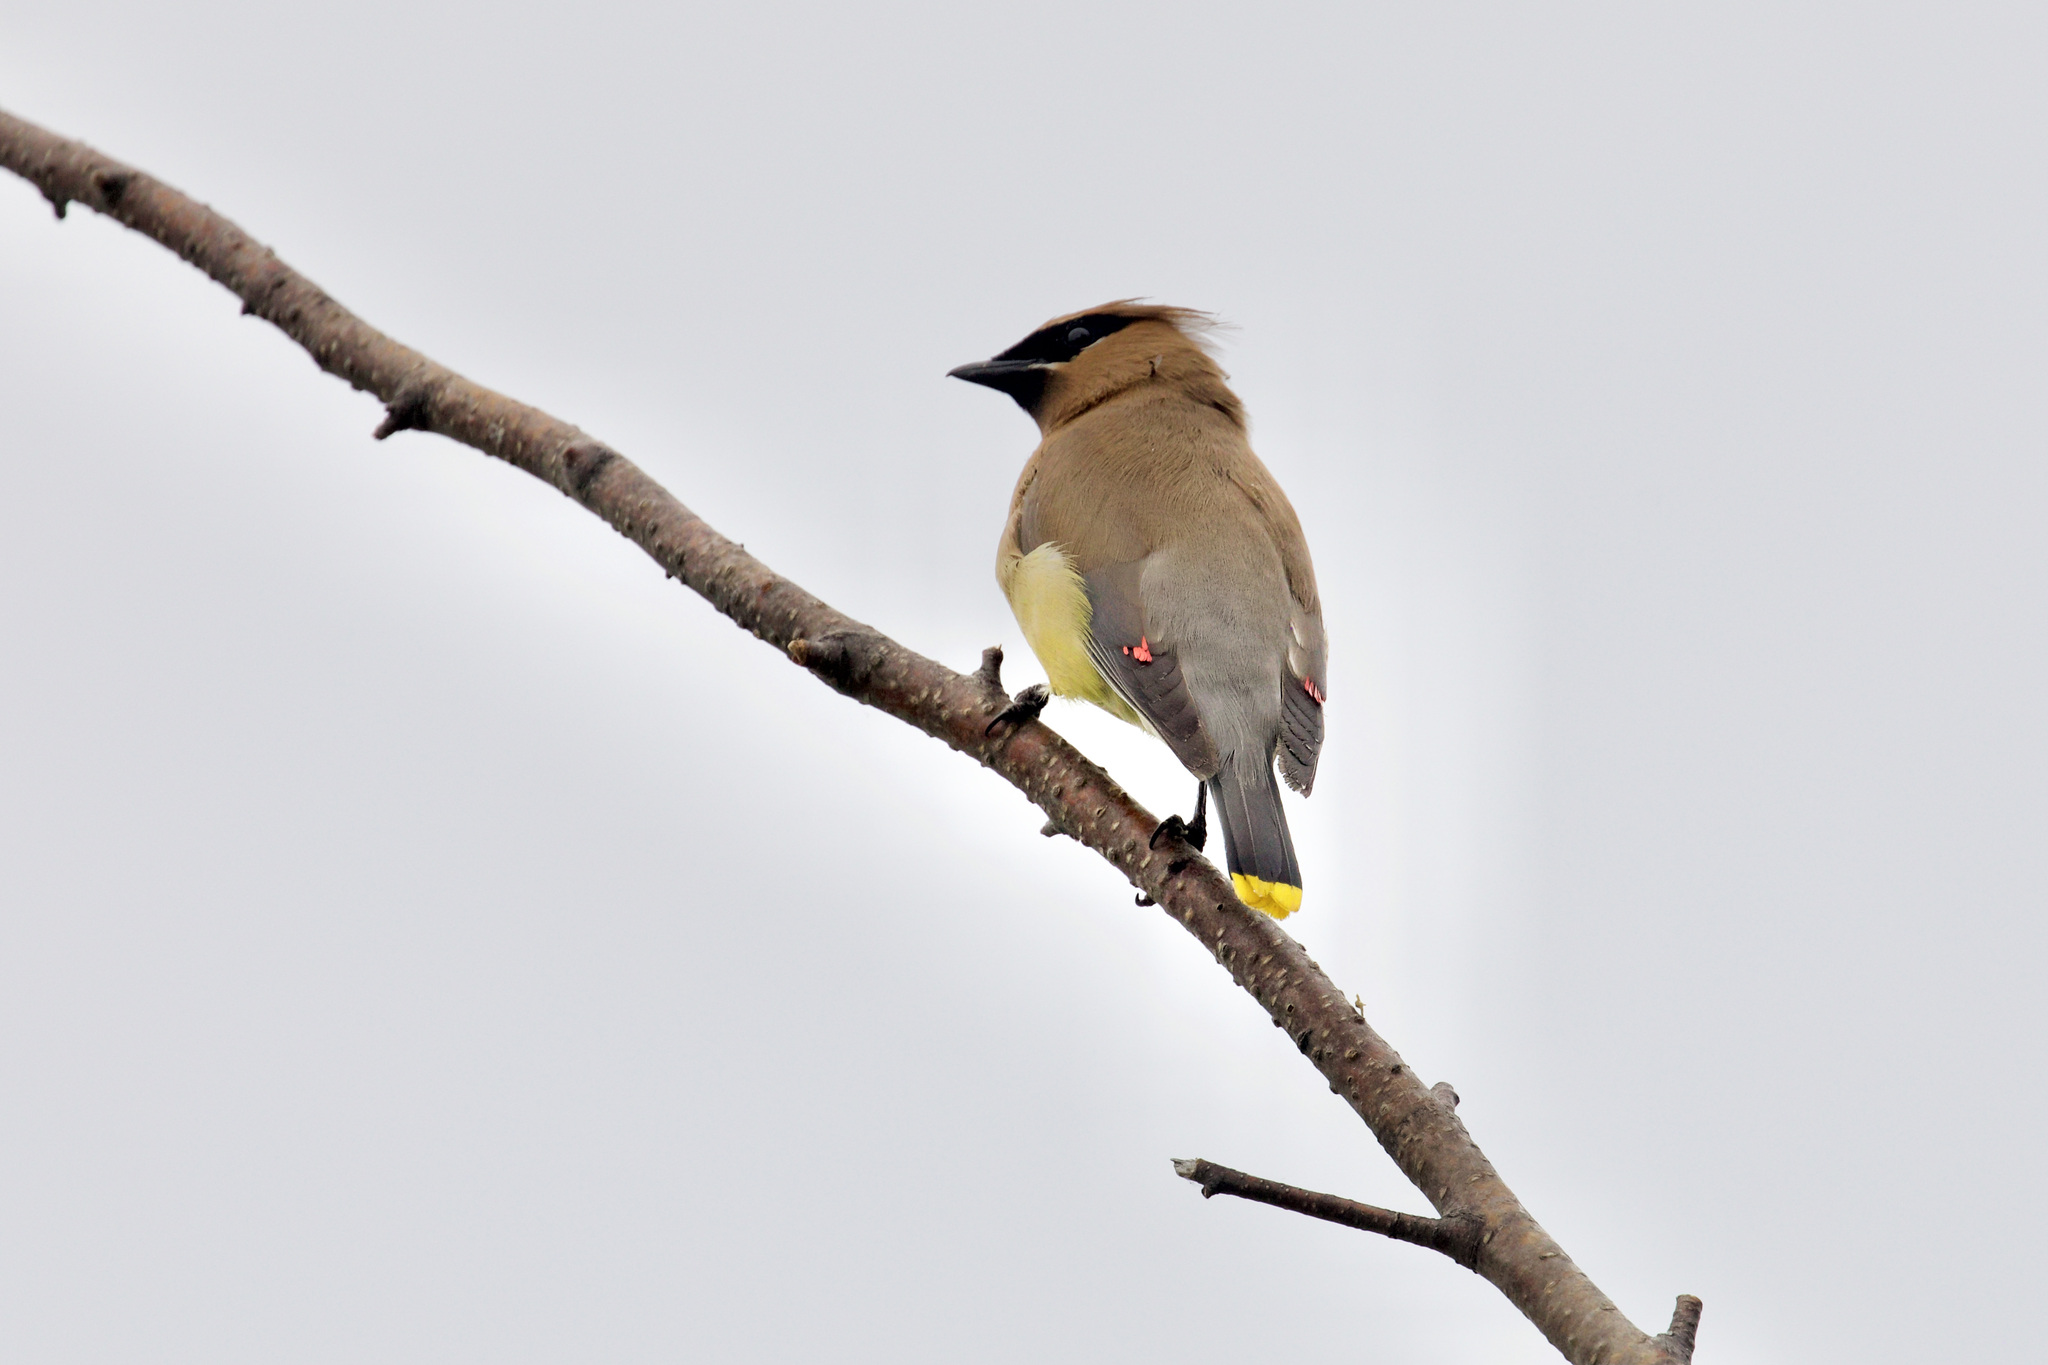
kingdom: Animalia
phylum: Chordata
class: Aves
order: Passeriformes
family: Bombycillidae
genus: Bombycilla
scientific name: Bombycilla cedrorum
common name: Cedar waxwing
